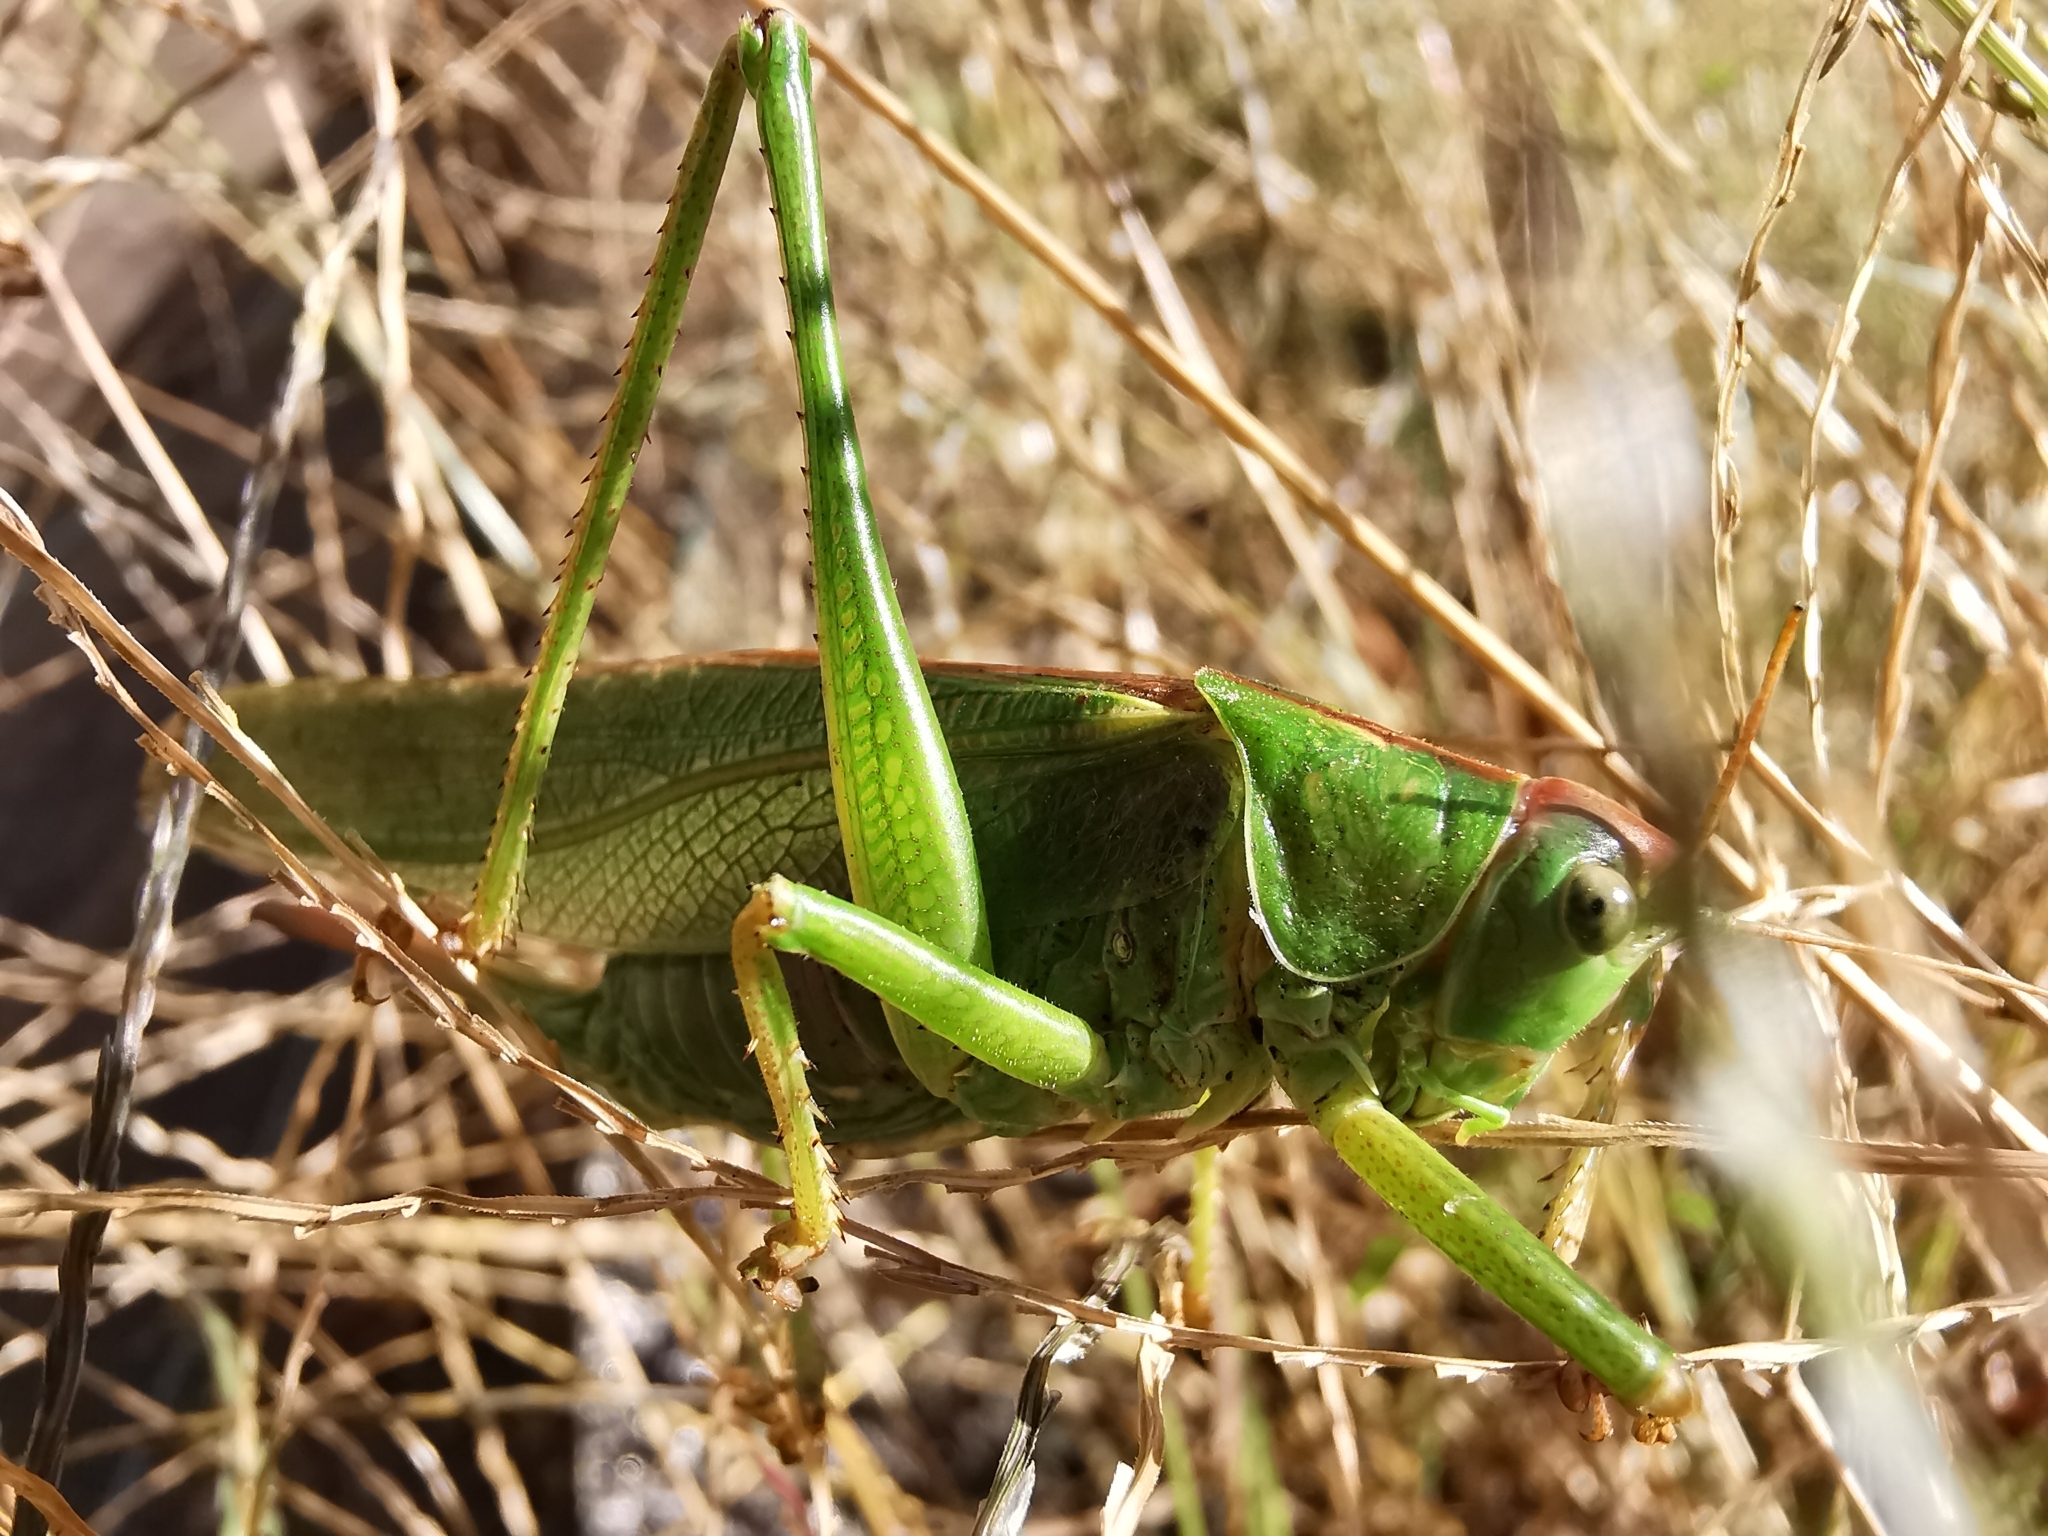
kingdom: Animalia
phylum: Arthropoda
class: Insecta
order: Orthoptera
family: Tettigoniidae
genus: Tettigonia
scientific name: Tettigonia viridissima
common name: Great green bush-cricket
